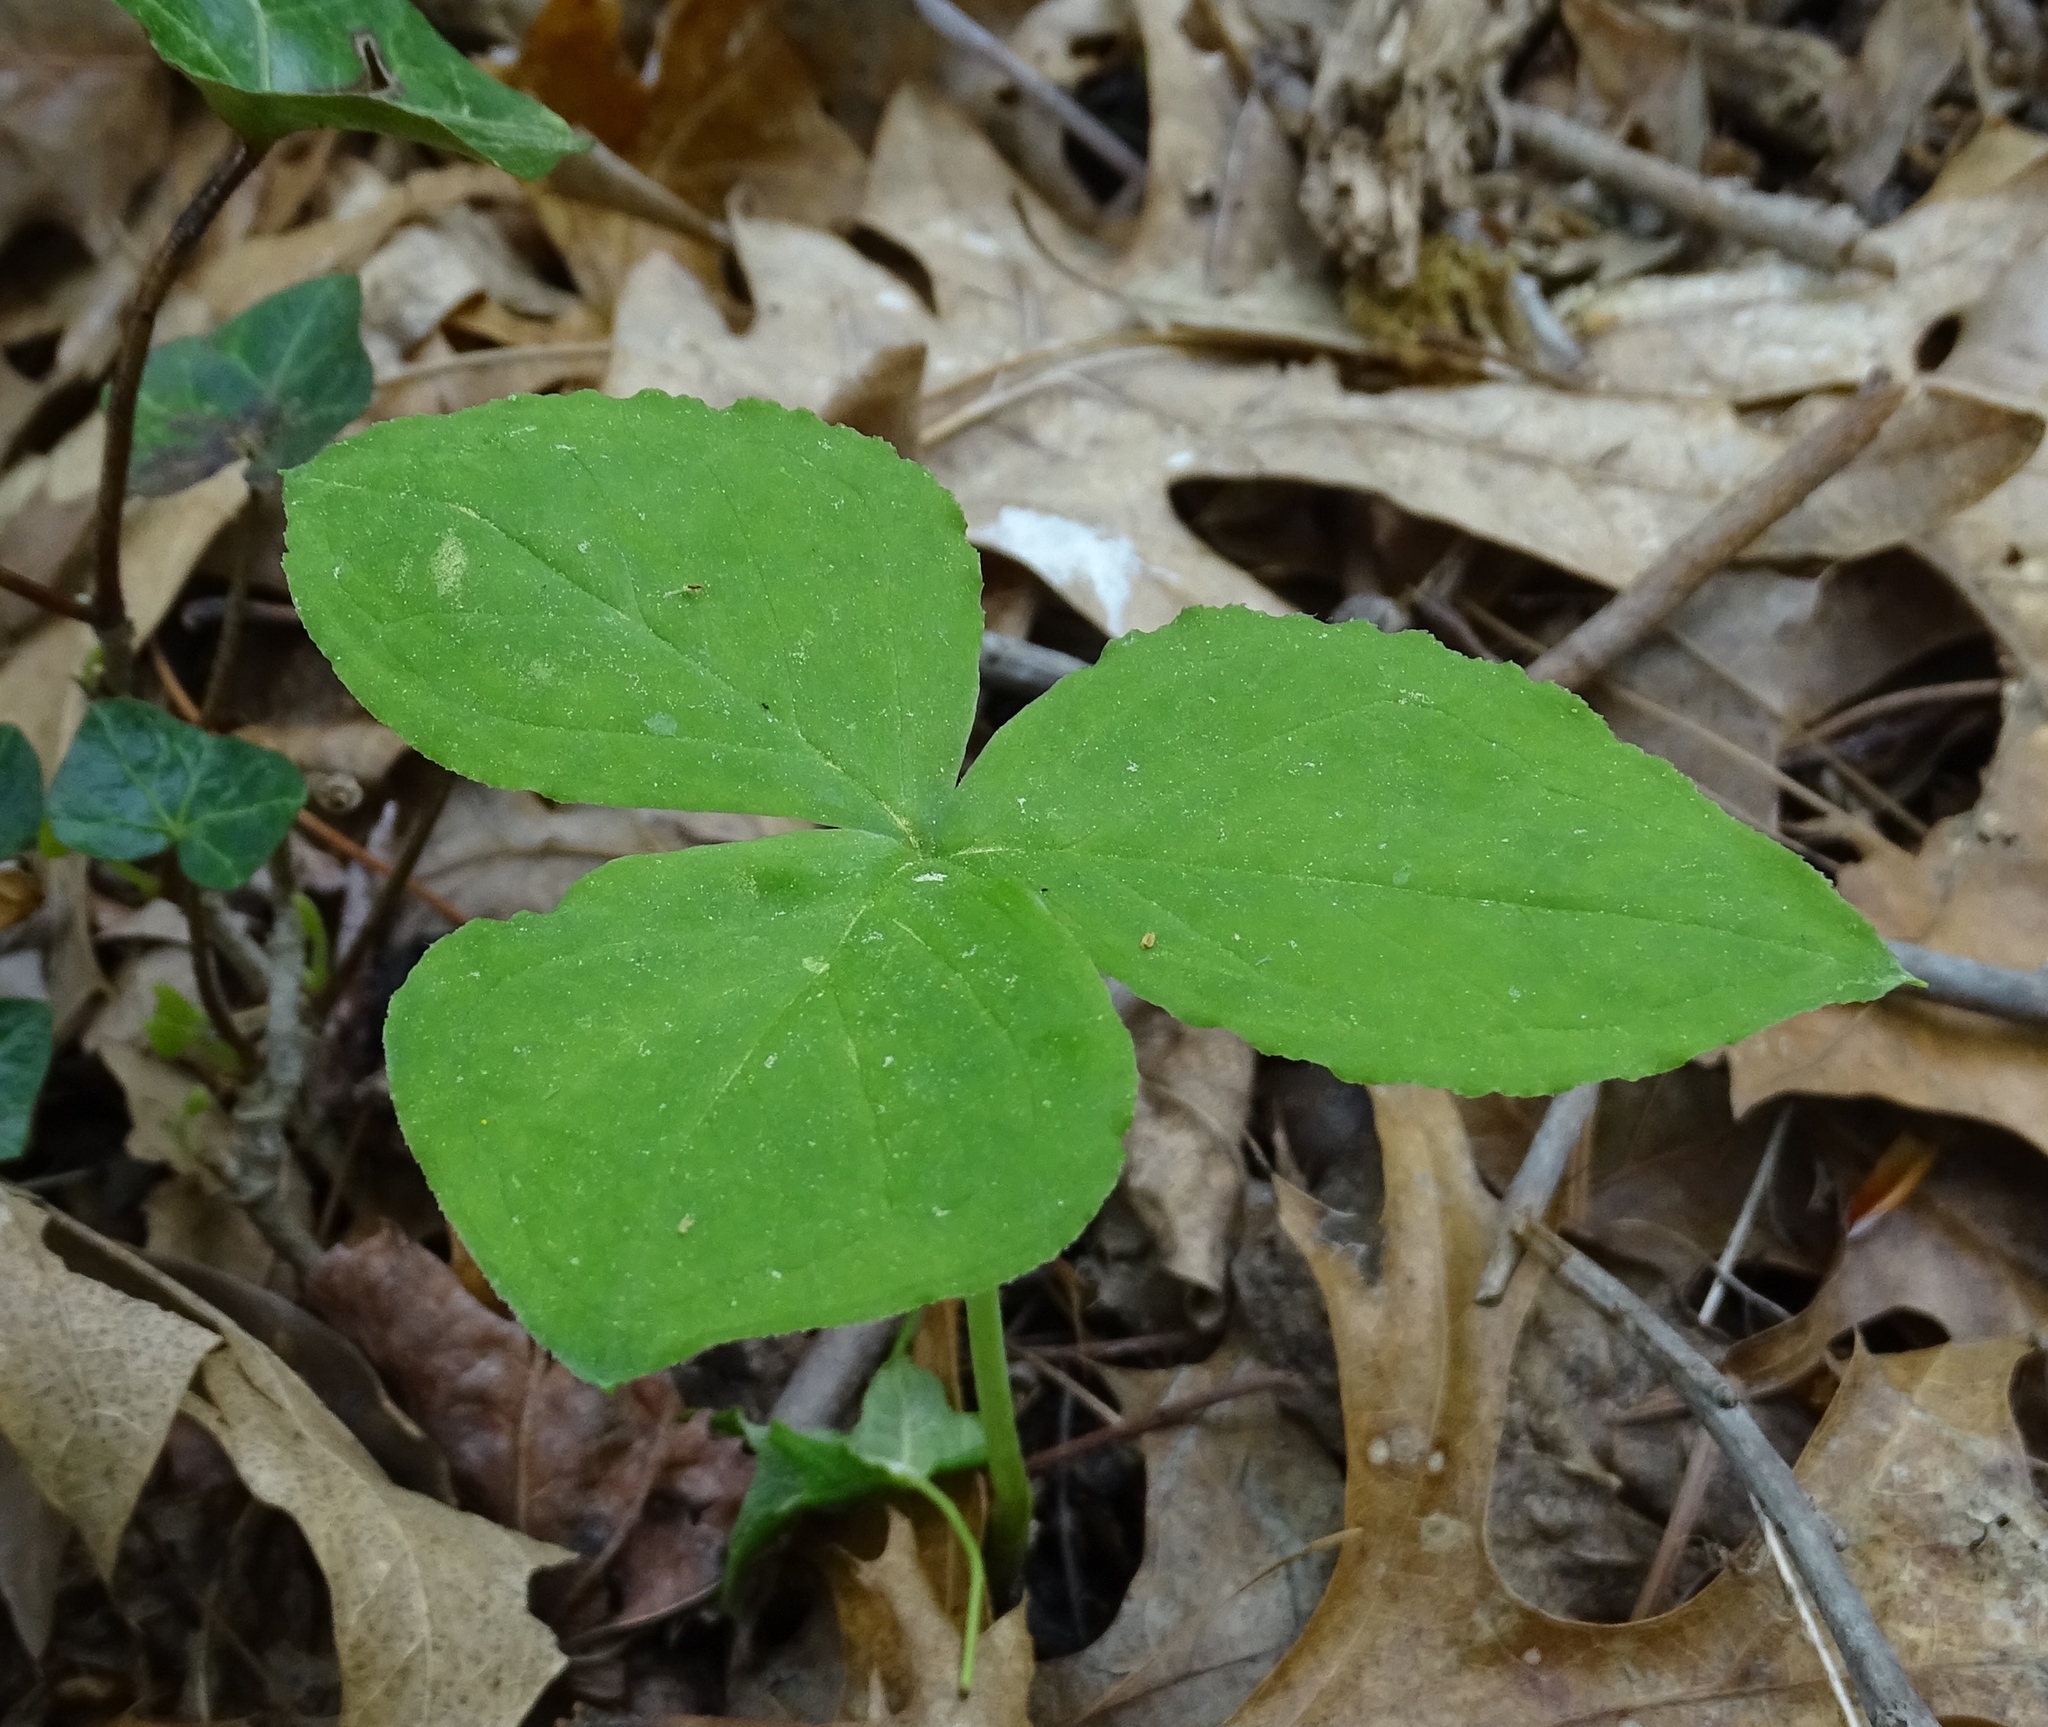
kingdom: Plantae
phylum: Tracheophyta
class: Liliopsida
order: Alismatales
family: Araceae
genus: Arisaema
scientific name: Arisaema triphyllum
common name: Jack-in-the-pulpit
